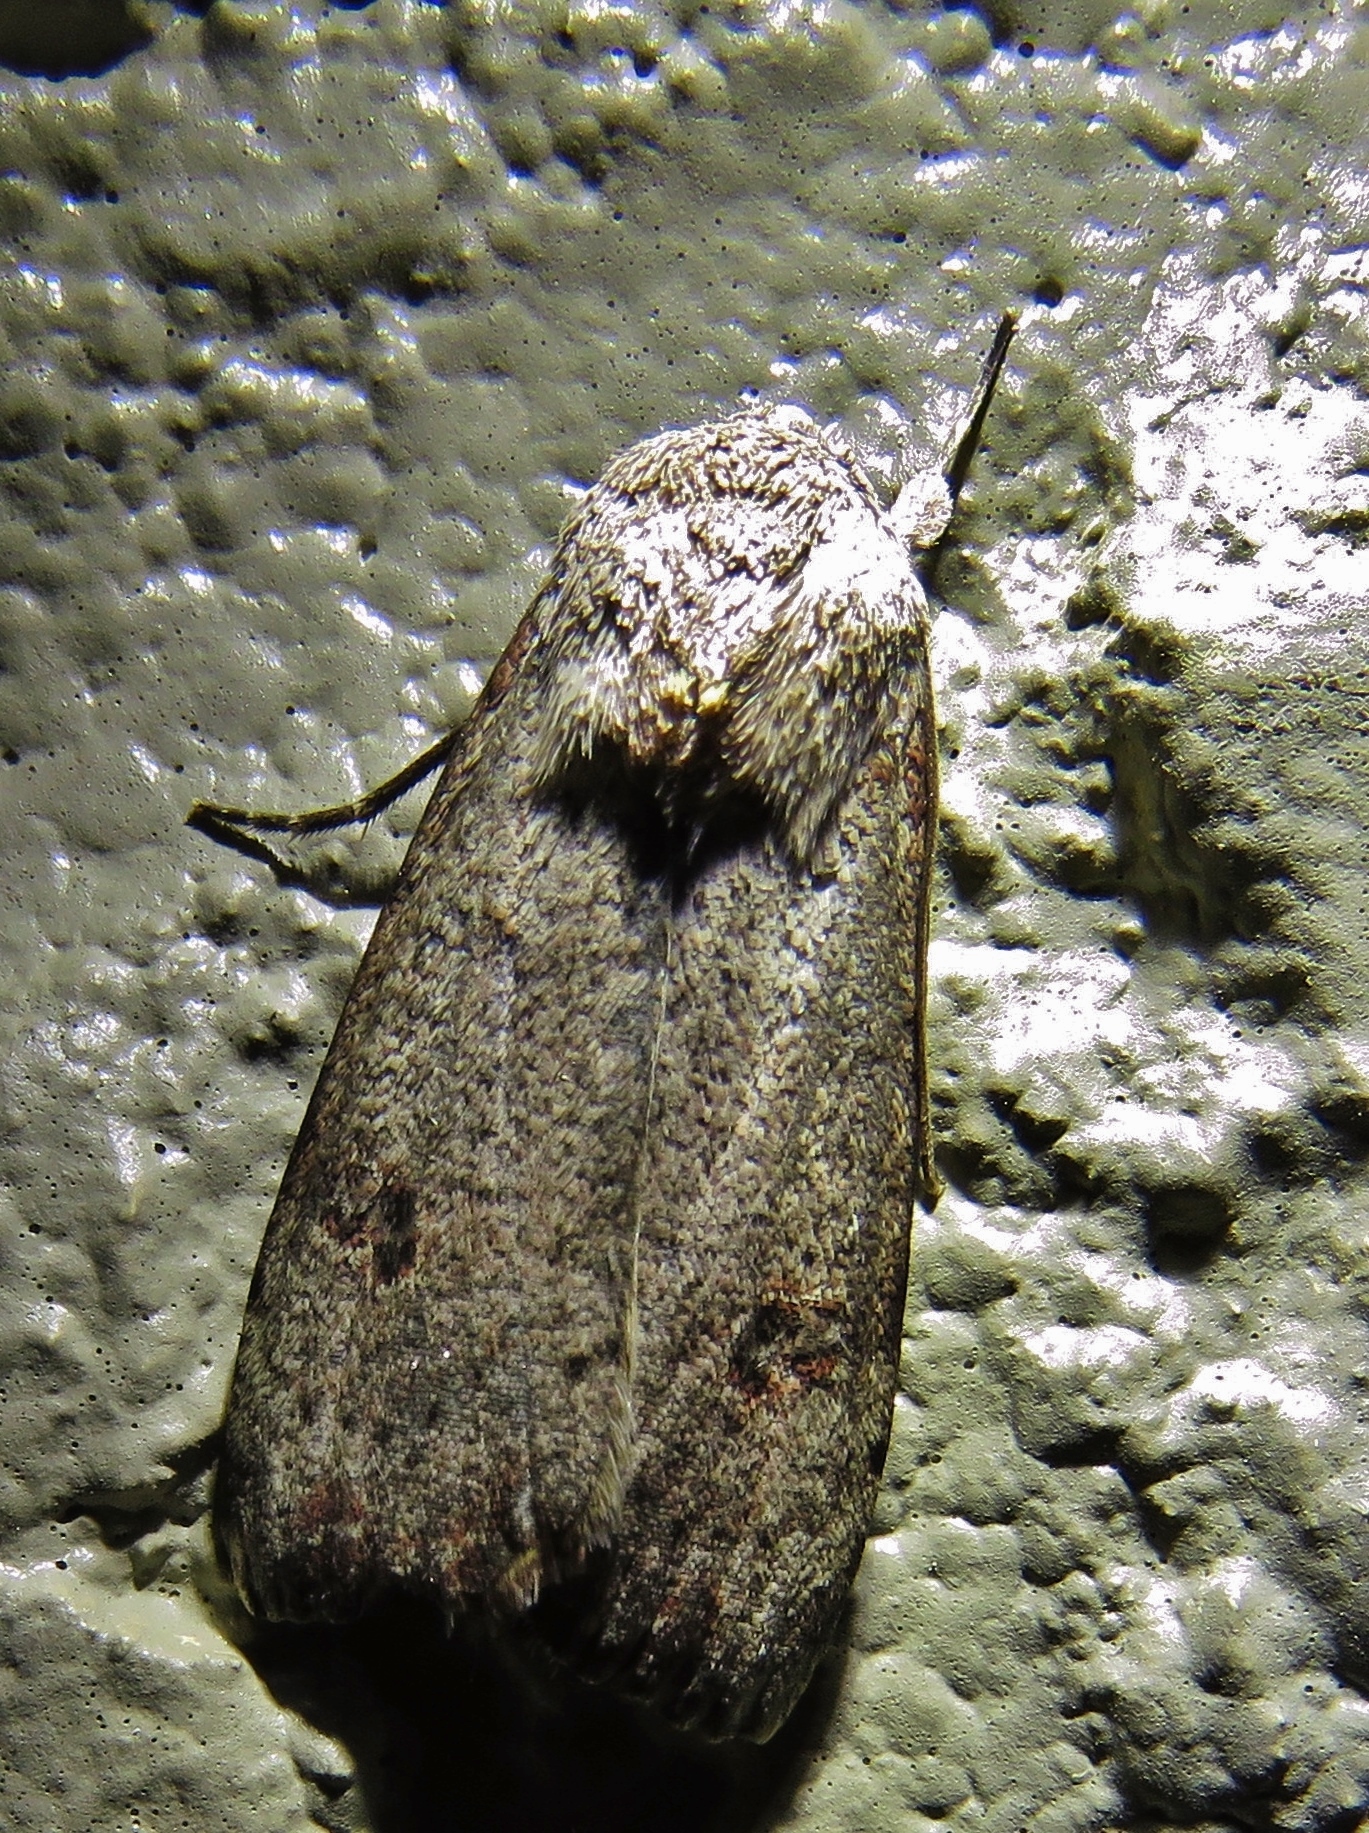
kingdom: Animalia
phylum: Arthropoda
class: Insecta
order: Lepidoptera
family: Noctuidae
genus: Anicla
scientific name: Anicla infecta
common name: Green cutworm
